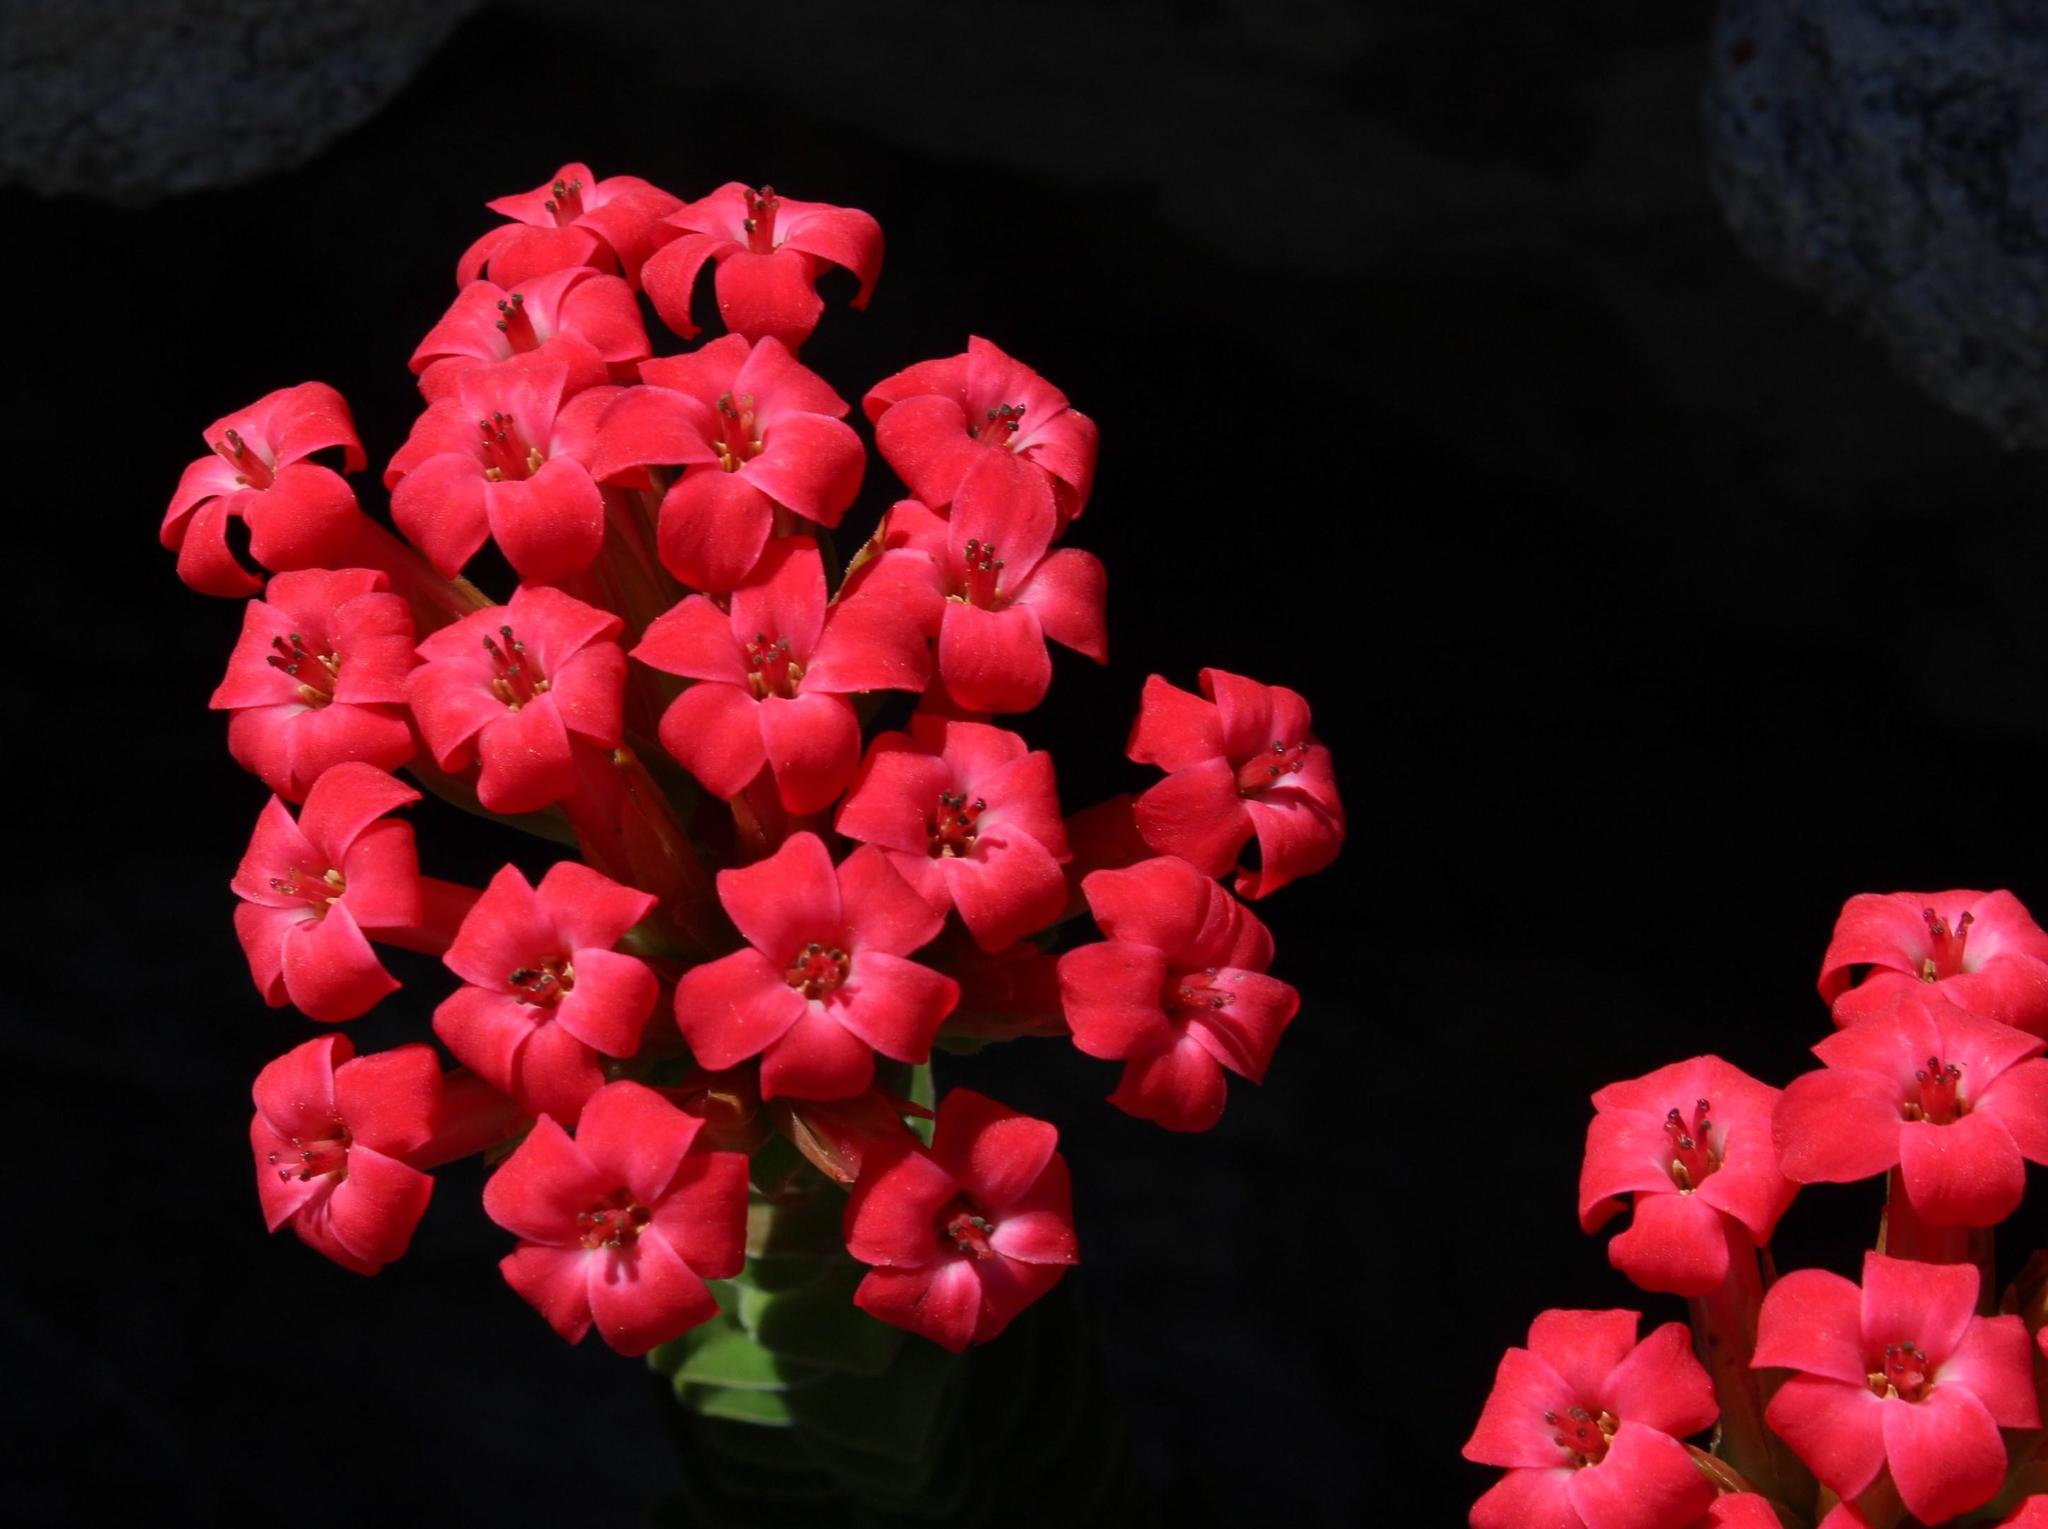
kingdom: Plantae
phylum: Tracheophyta
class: Magnoliopsida
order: Saxifragales
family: Crassulaceae
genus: Crassula
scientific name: Crassula coccinea
